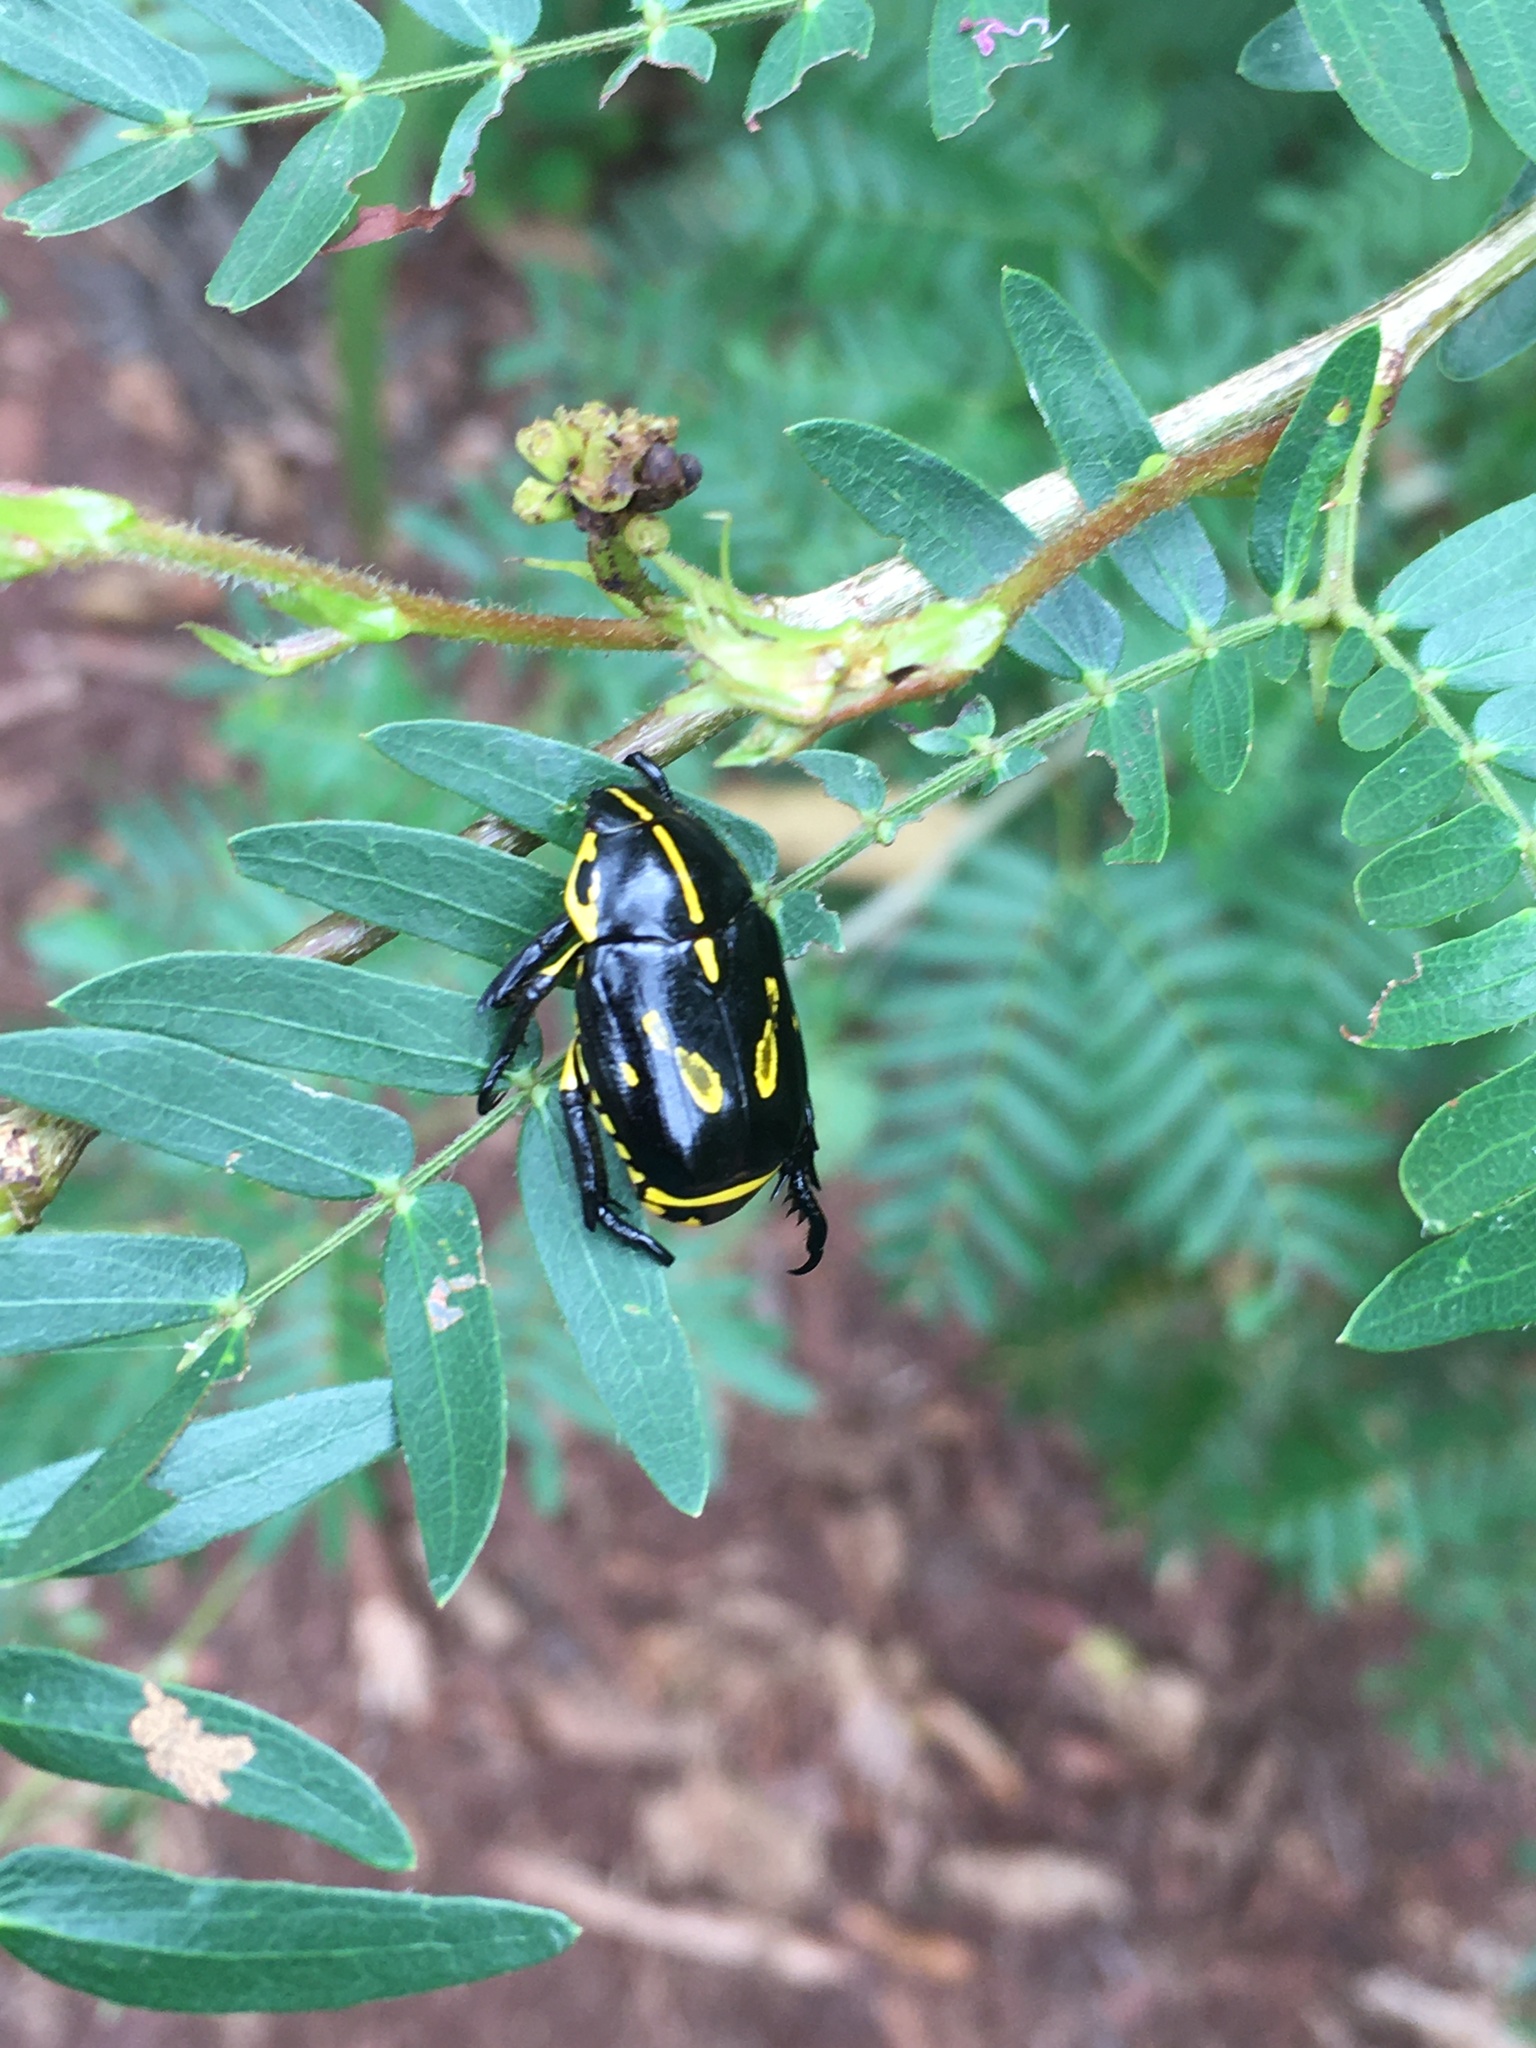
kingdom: Animalia
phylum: Arthropoda
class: Insecta
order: Coleoptera
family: Scarabaeidae
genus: Rutela
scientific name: Rutela lineola
